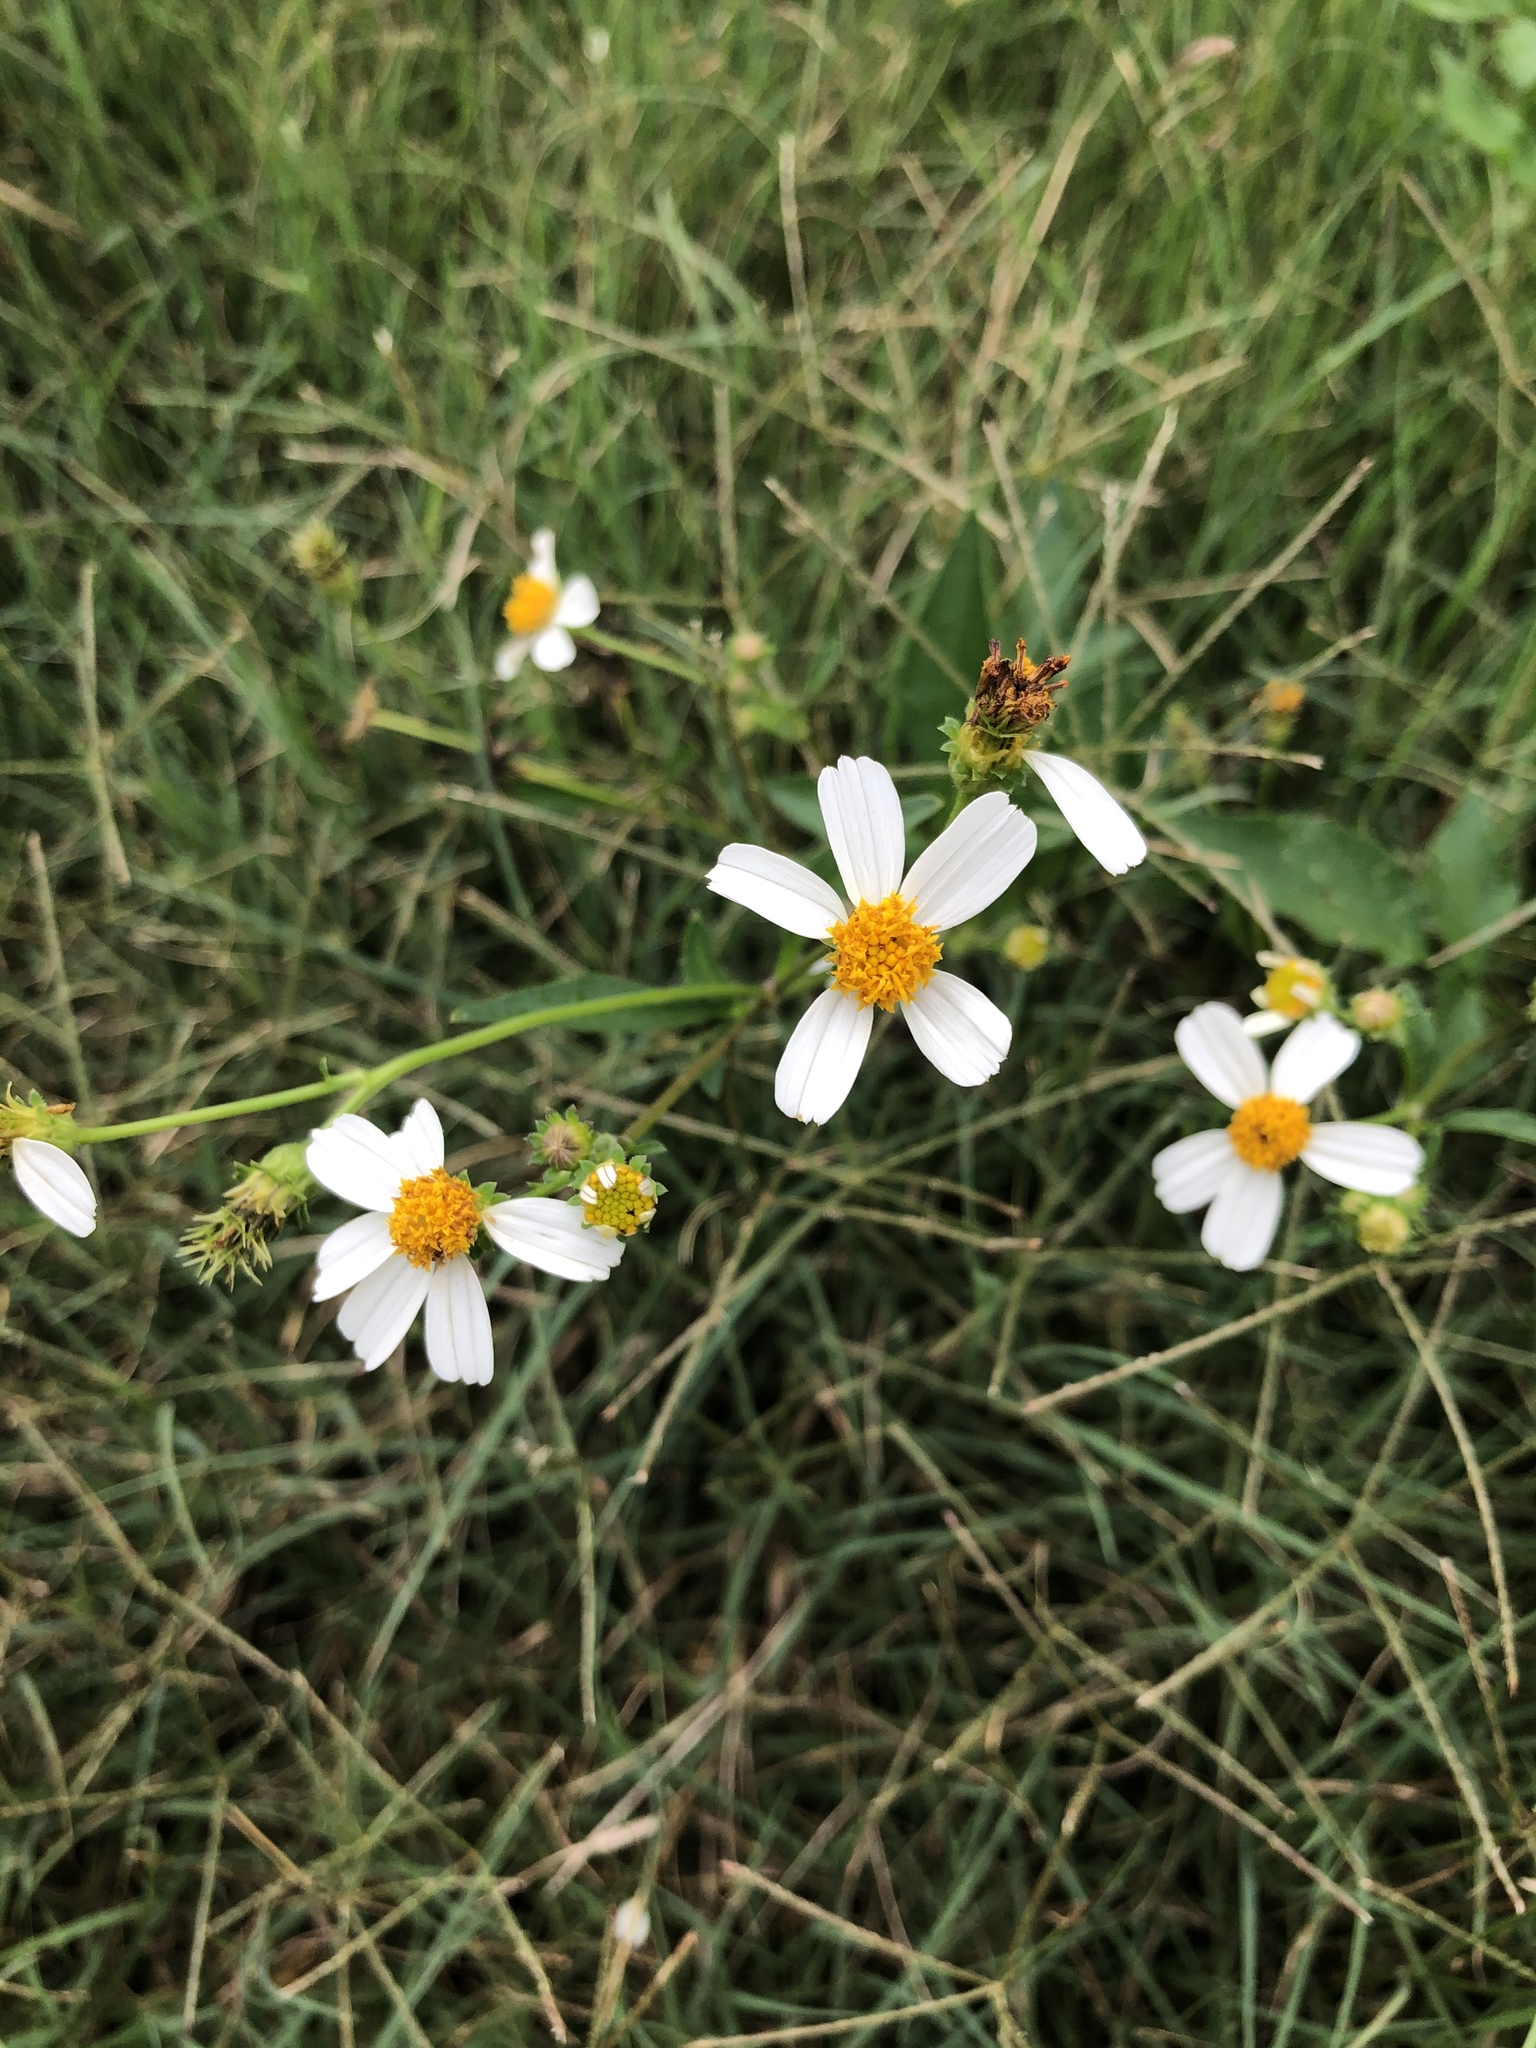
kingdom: Plantae
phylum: Tracheophyta
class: Magnoliopsida
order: Asterales
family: Asteraceae
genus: Bidens
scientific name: Bidens alba
